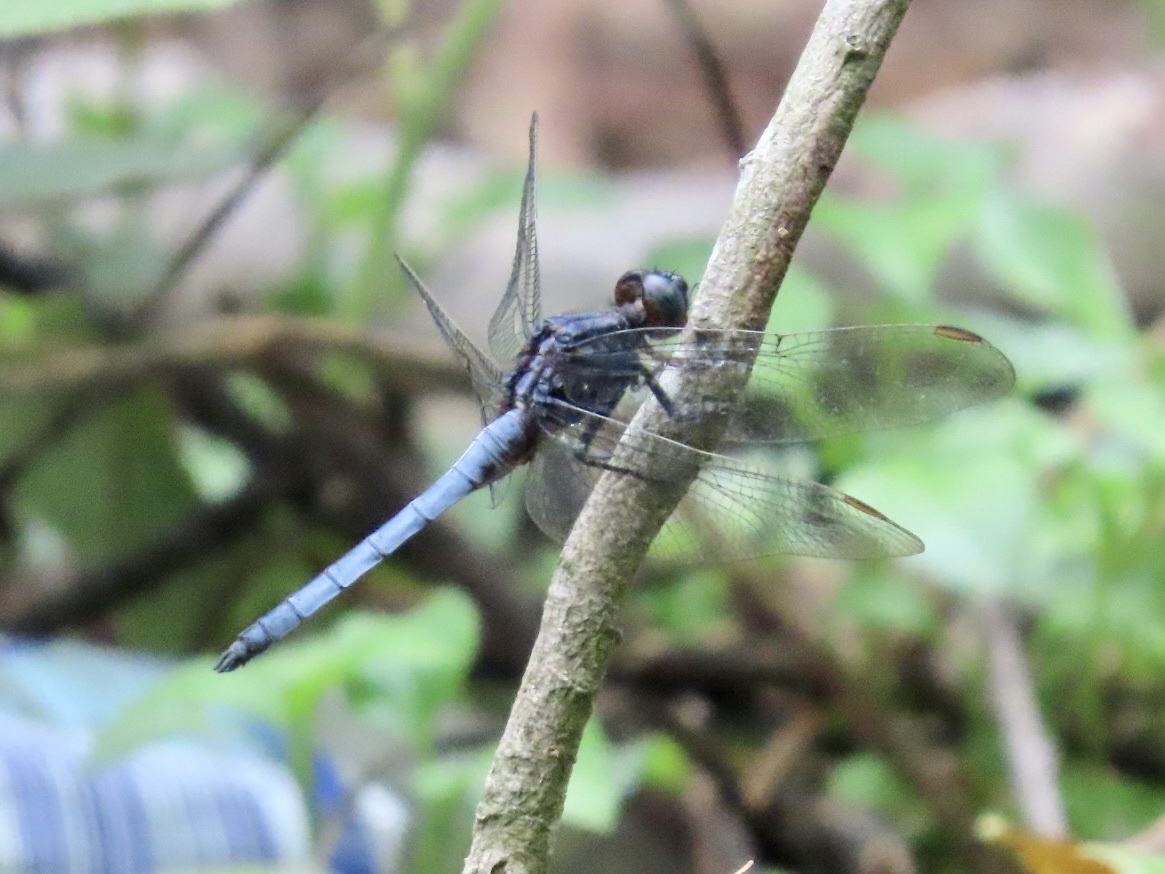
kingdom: Animalia
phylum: Arthropoda
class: Insecta
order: Odonata
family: Libellulidae
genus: Orthetrum
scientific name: Orthetrum glaucum
